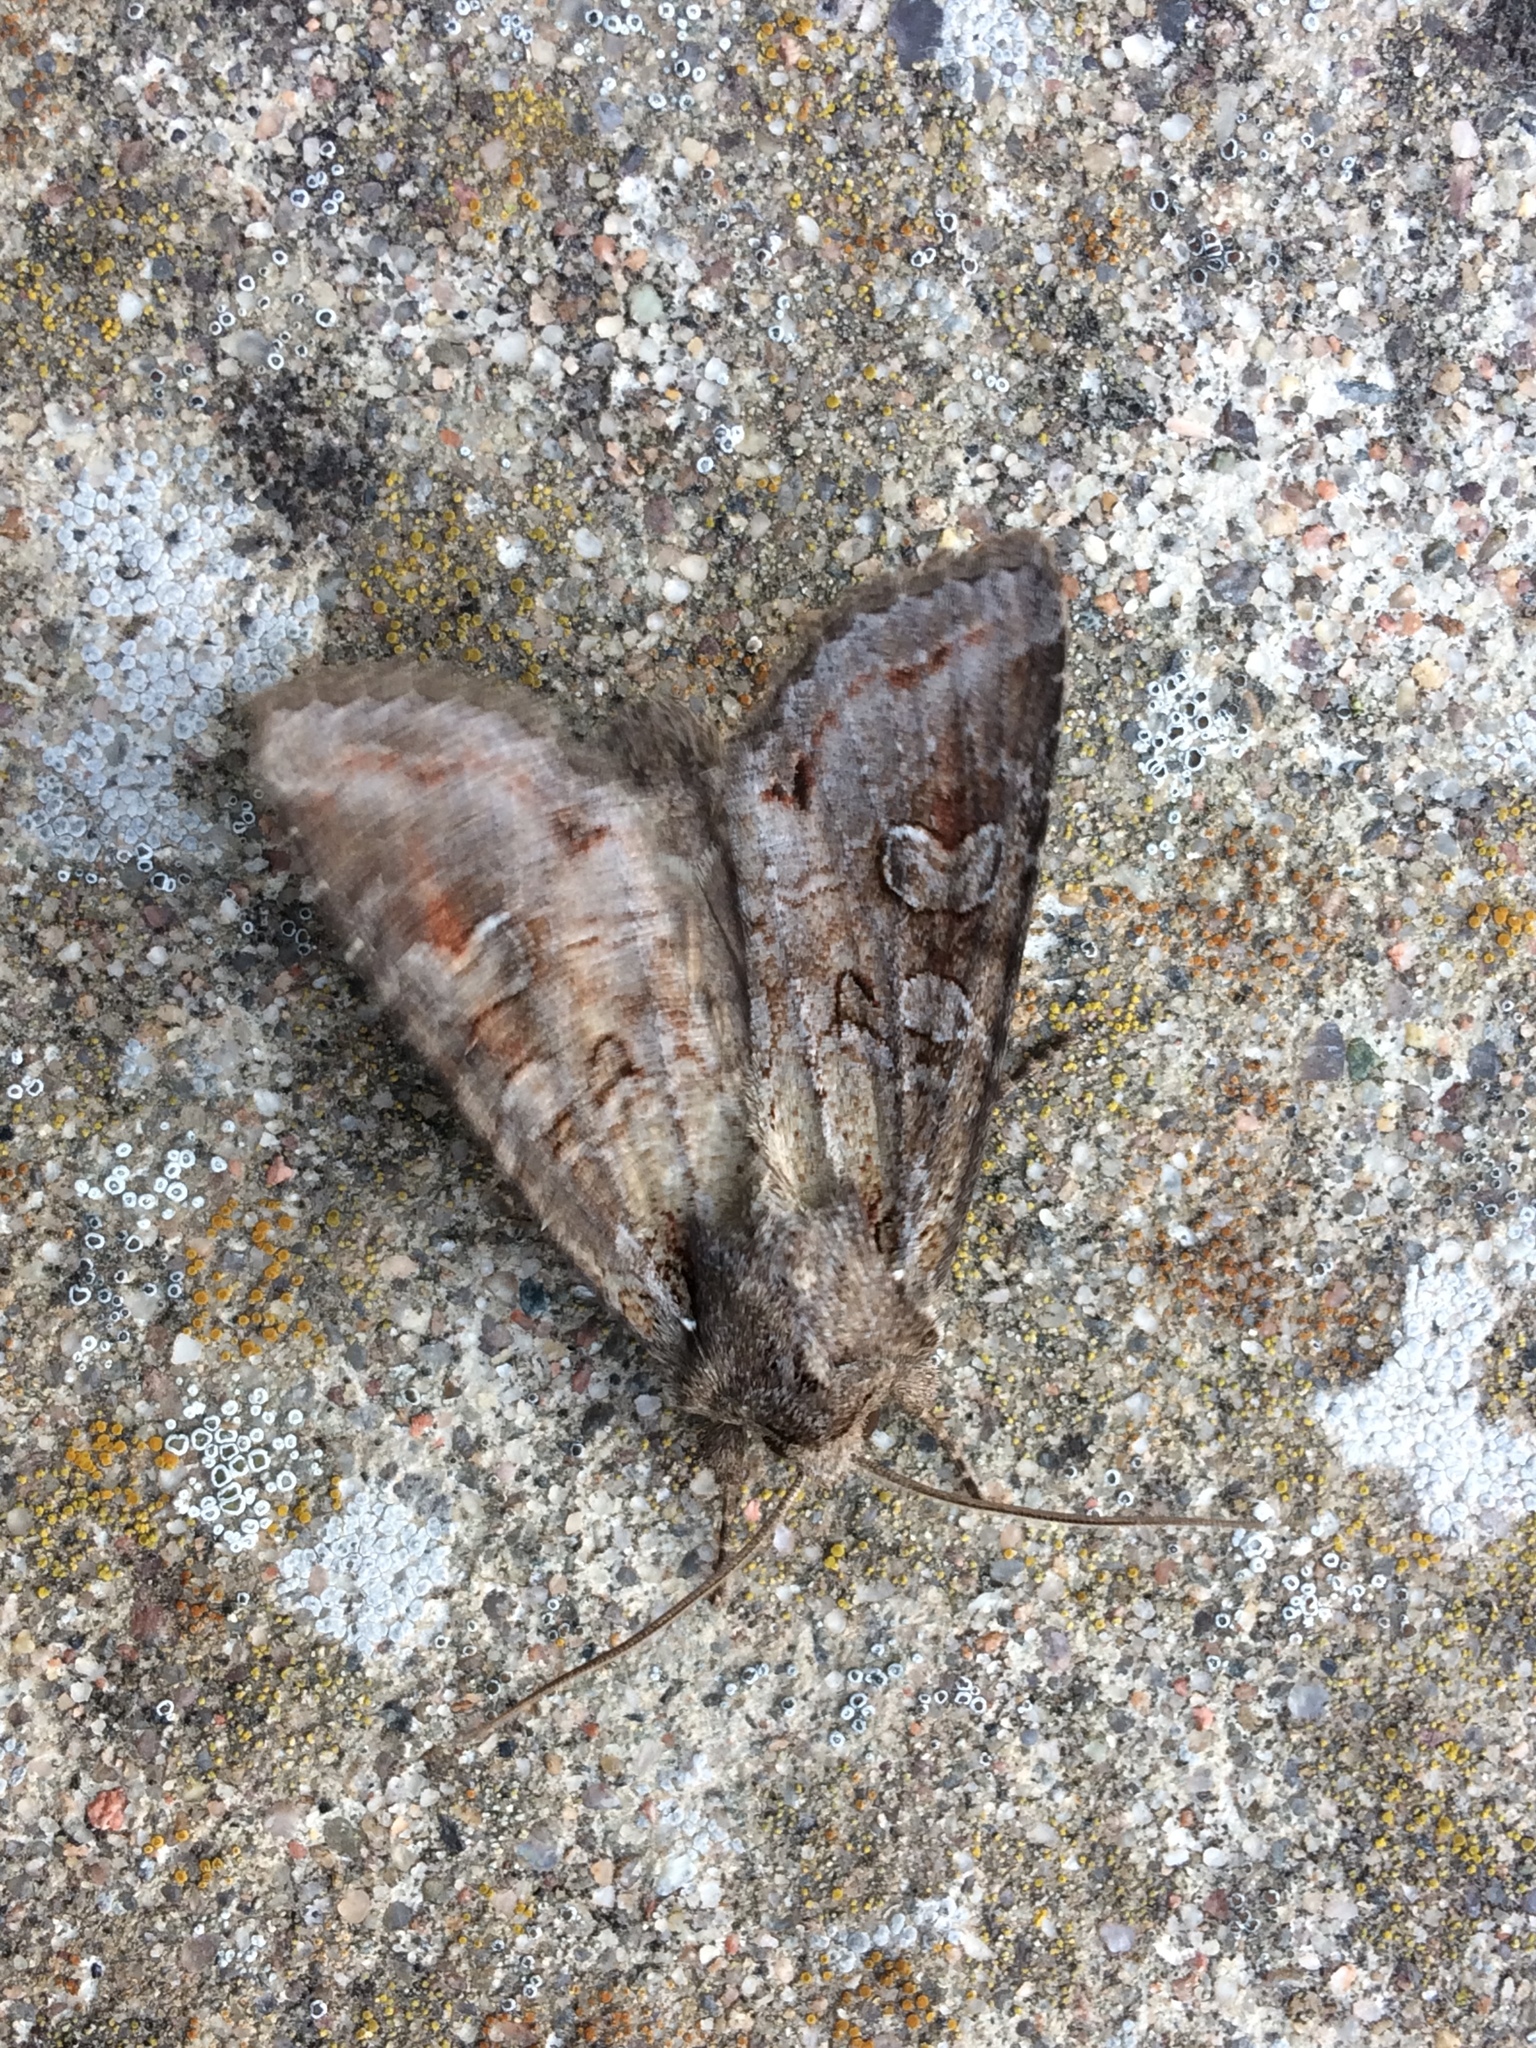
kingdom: Animalia
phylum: Arthropoda
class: Insecta
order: Lepidoptera
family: Noctuidae
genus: Polia
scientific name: Polia bombycina
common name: Pale shining brown
